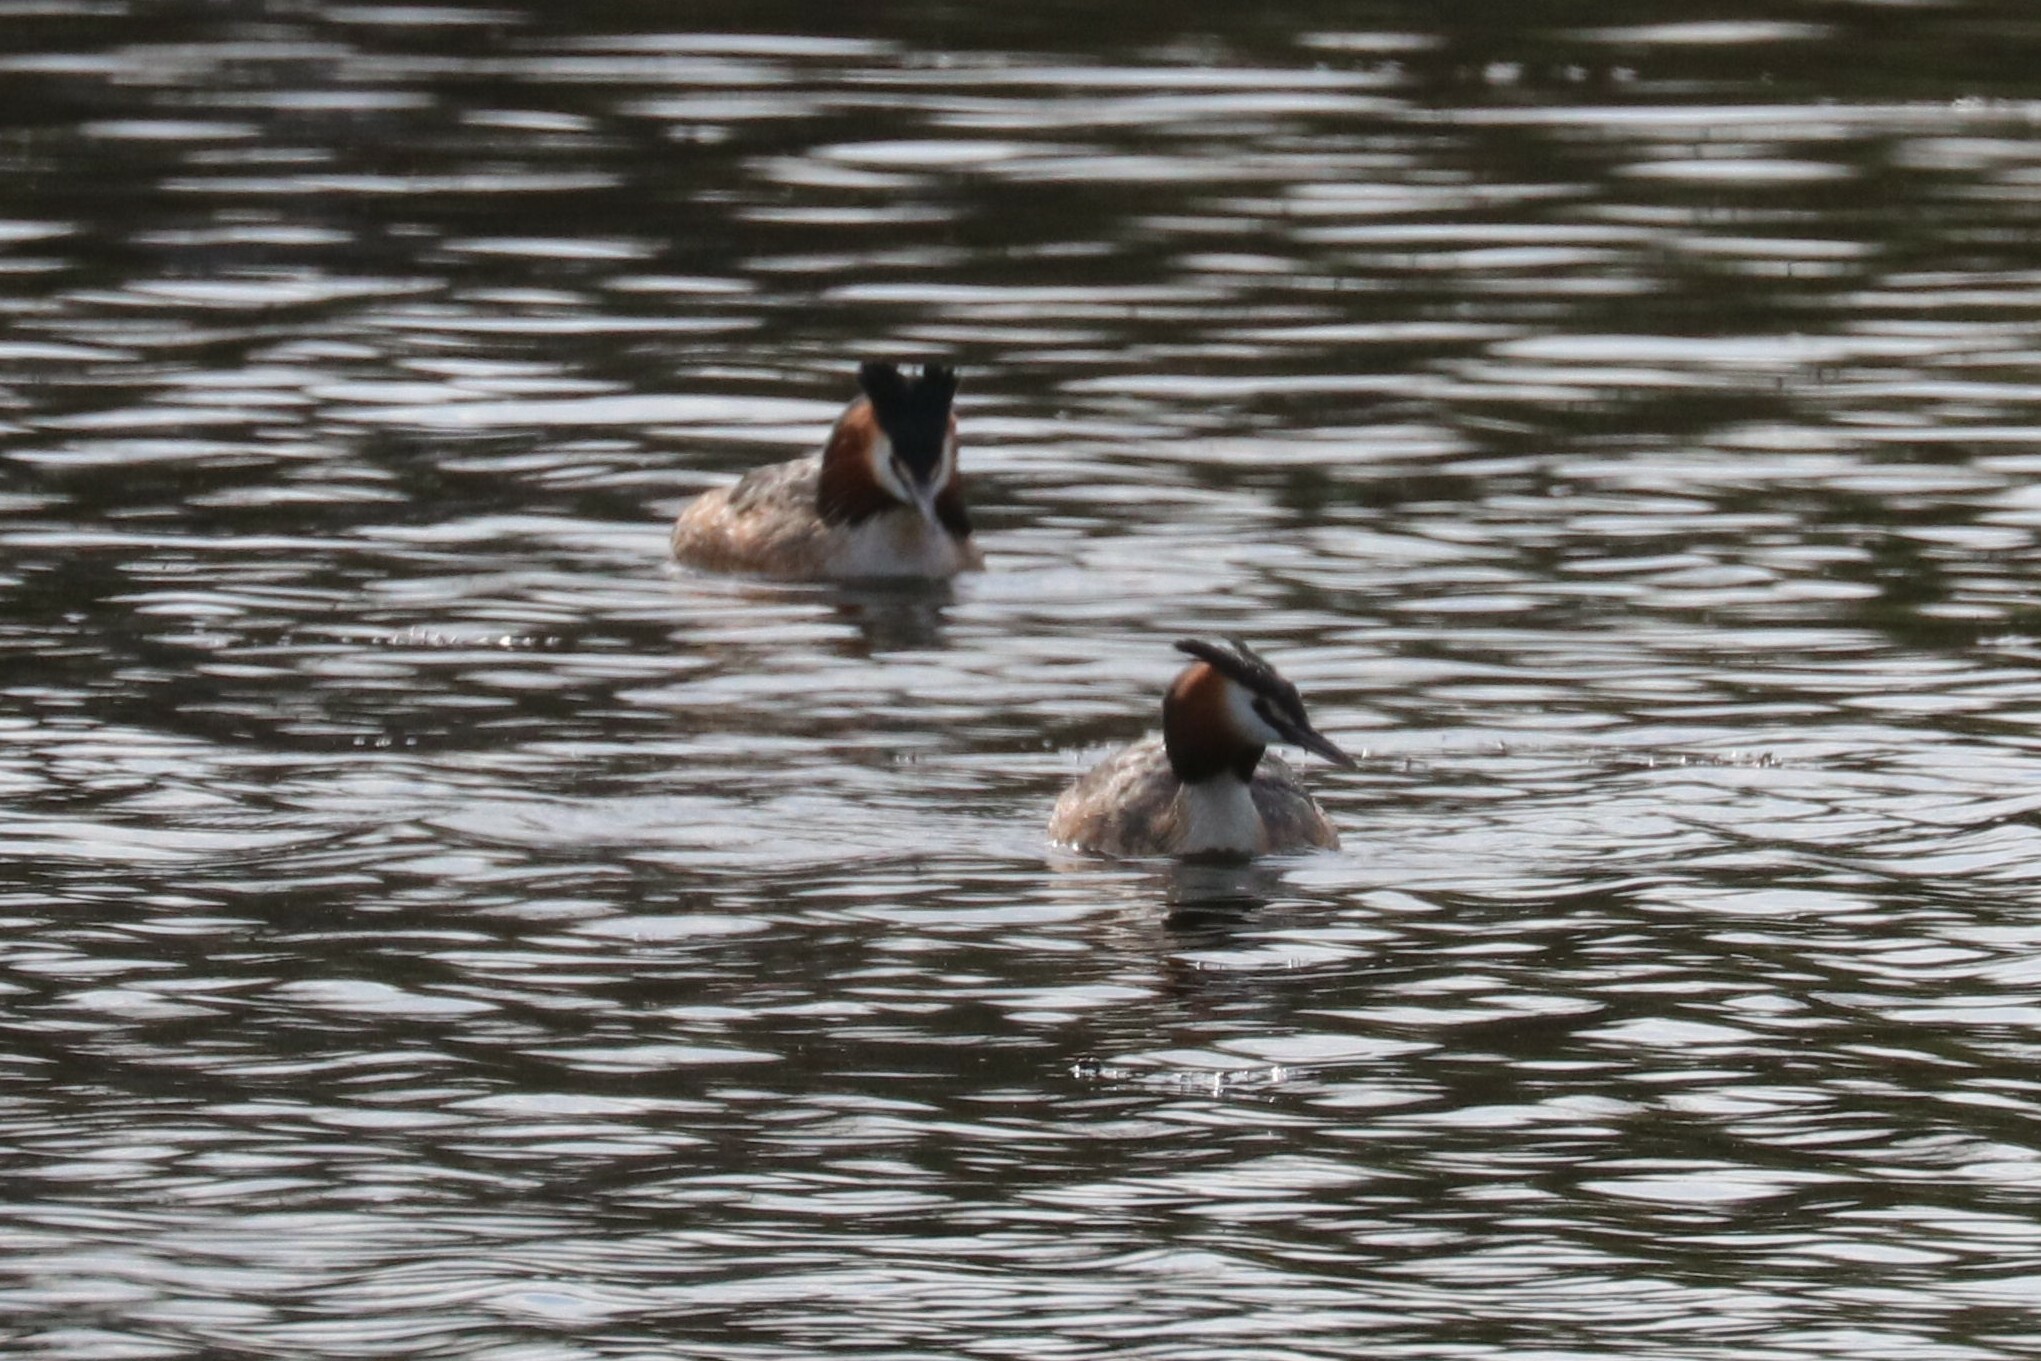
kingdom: Animalia
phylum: Chordata
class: Aves
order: Podicipediformes
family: Podicipedidae
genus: Podiceps
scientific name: Podiceps cristatus
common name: Great crested grebe
